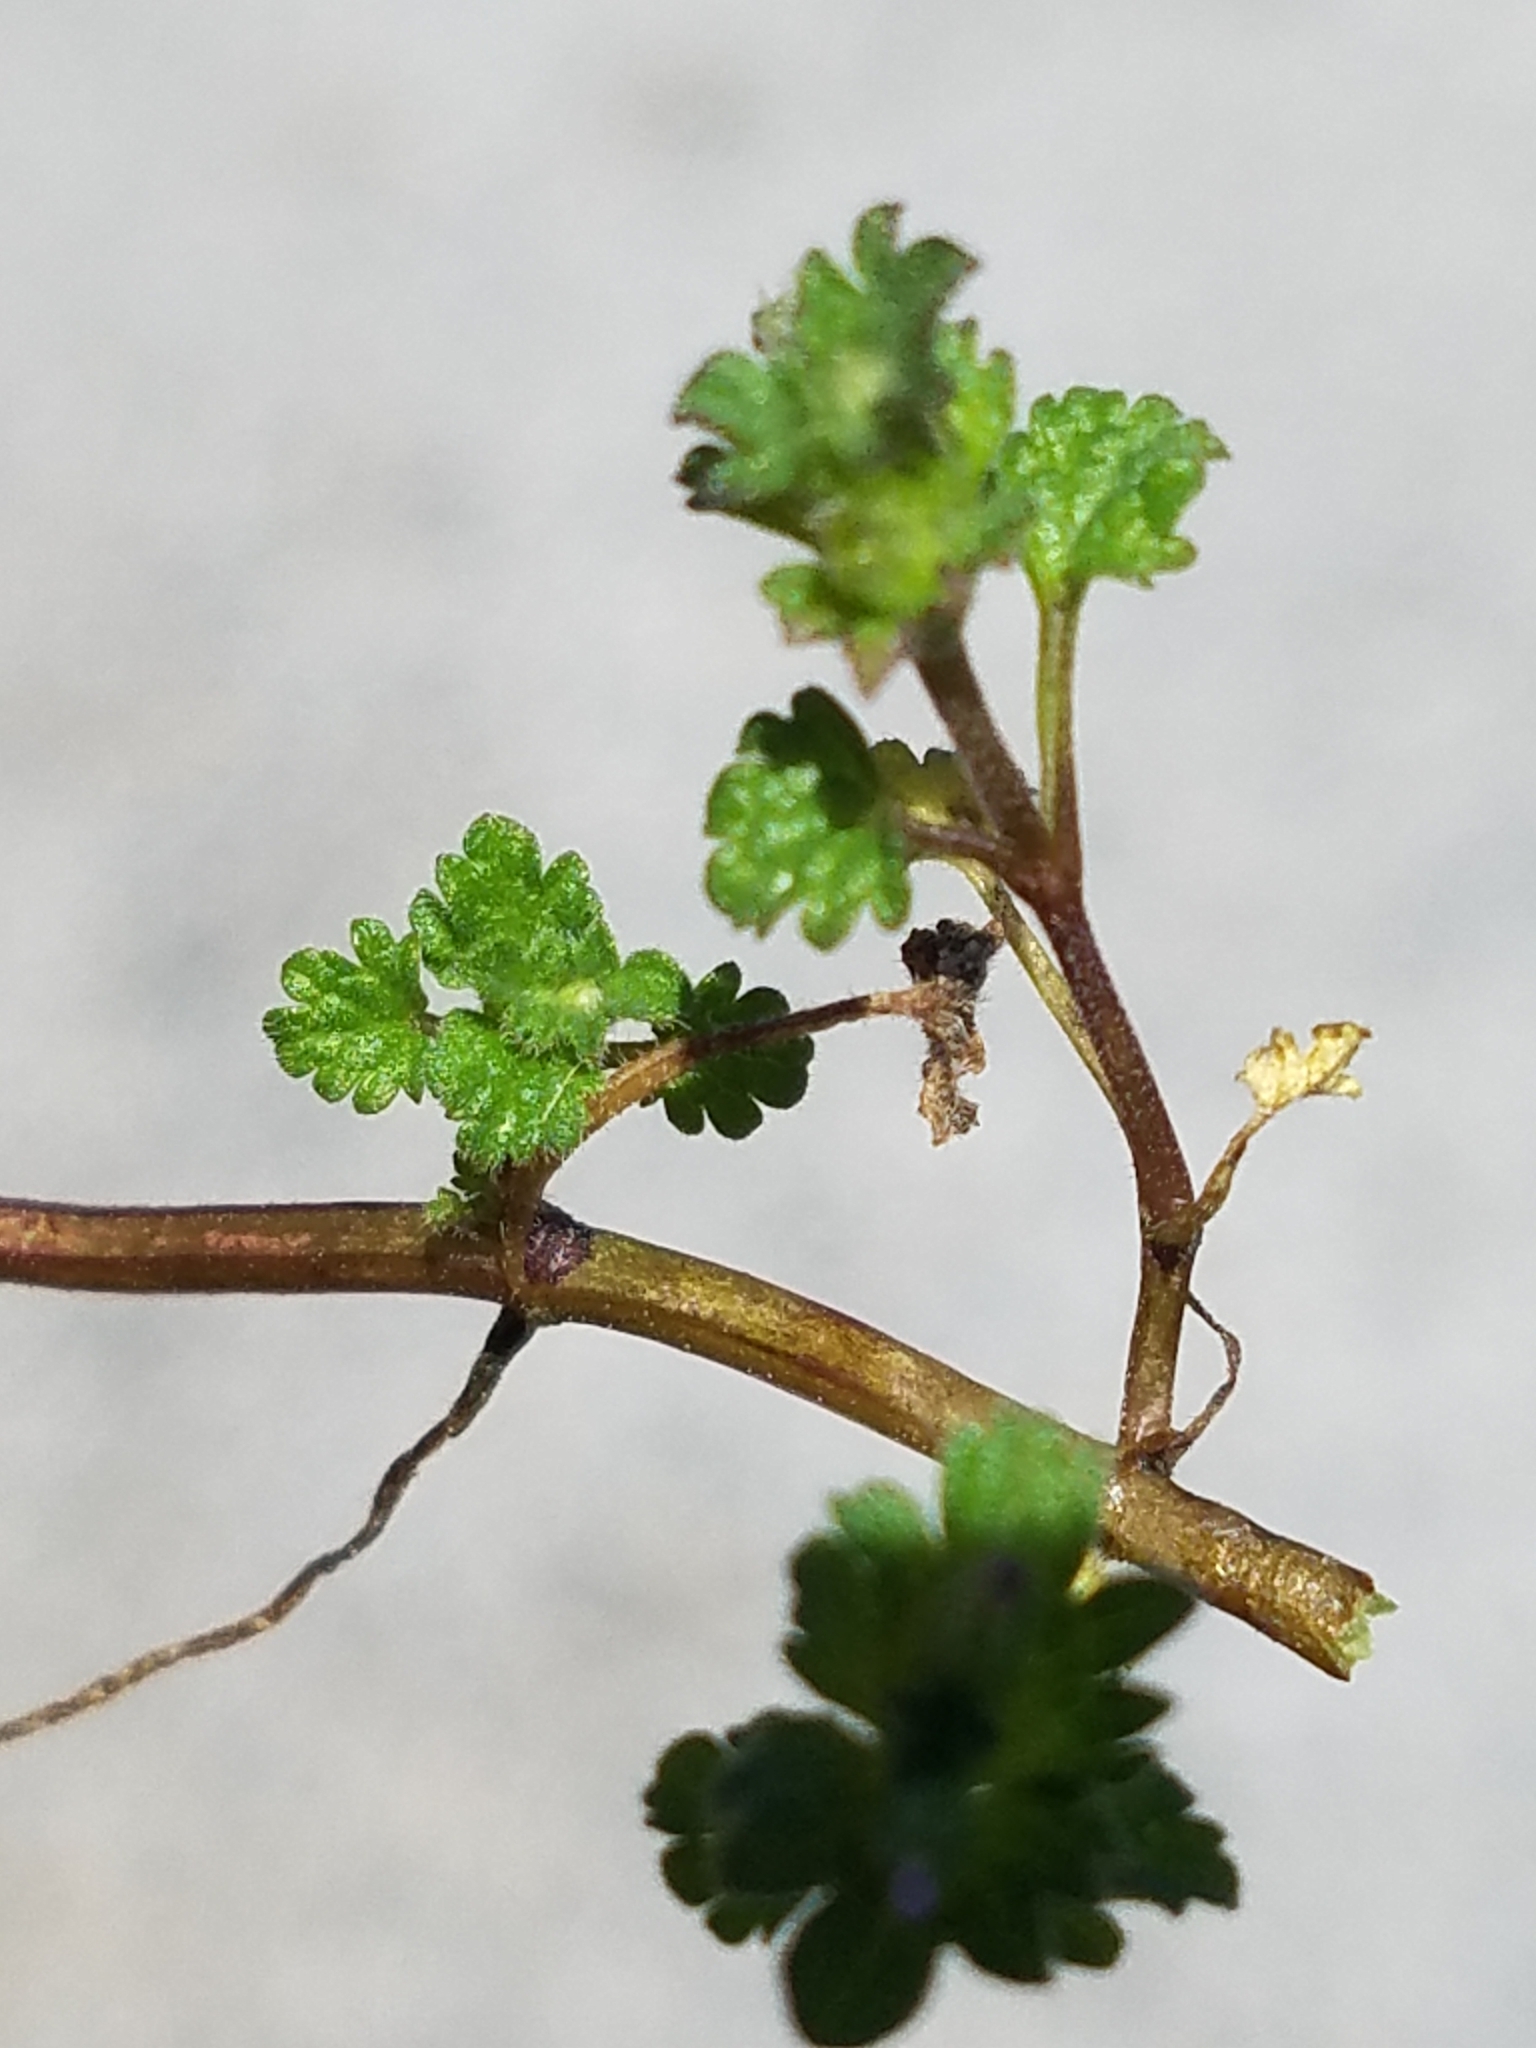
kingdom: Plantae
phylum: Tracheophyta
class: Magnoliopsida
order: Lamiales
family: Lamiaceae
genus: Lamium
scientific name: Lamium amplexicaule
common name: Henbit dead-nettle
